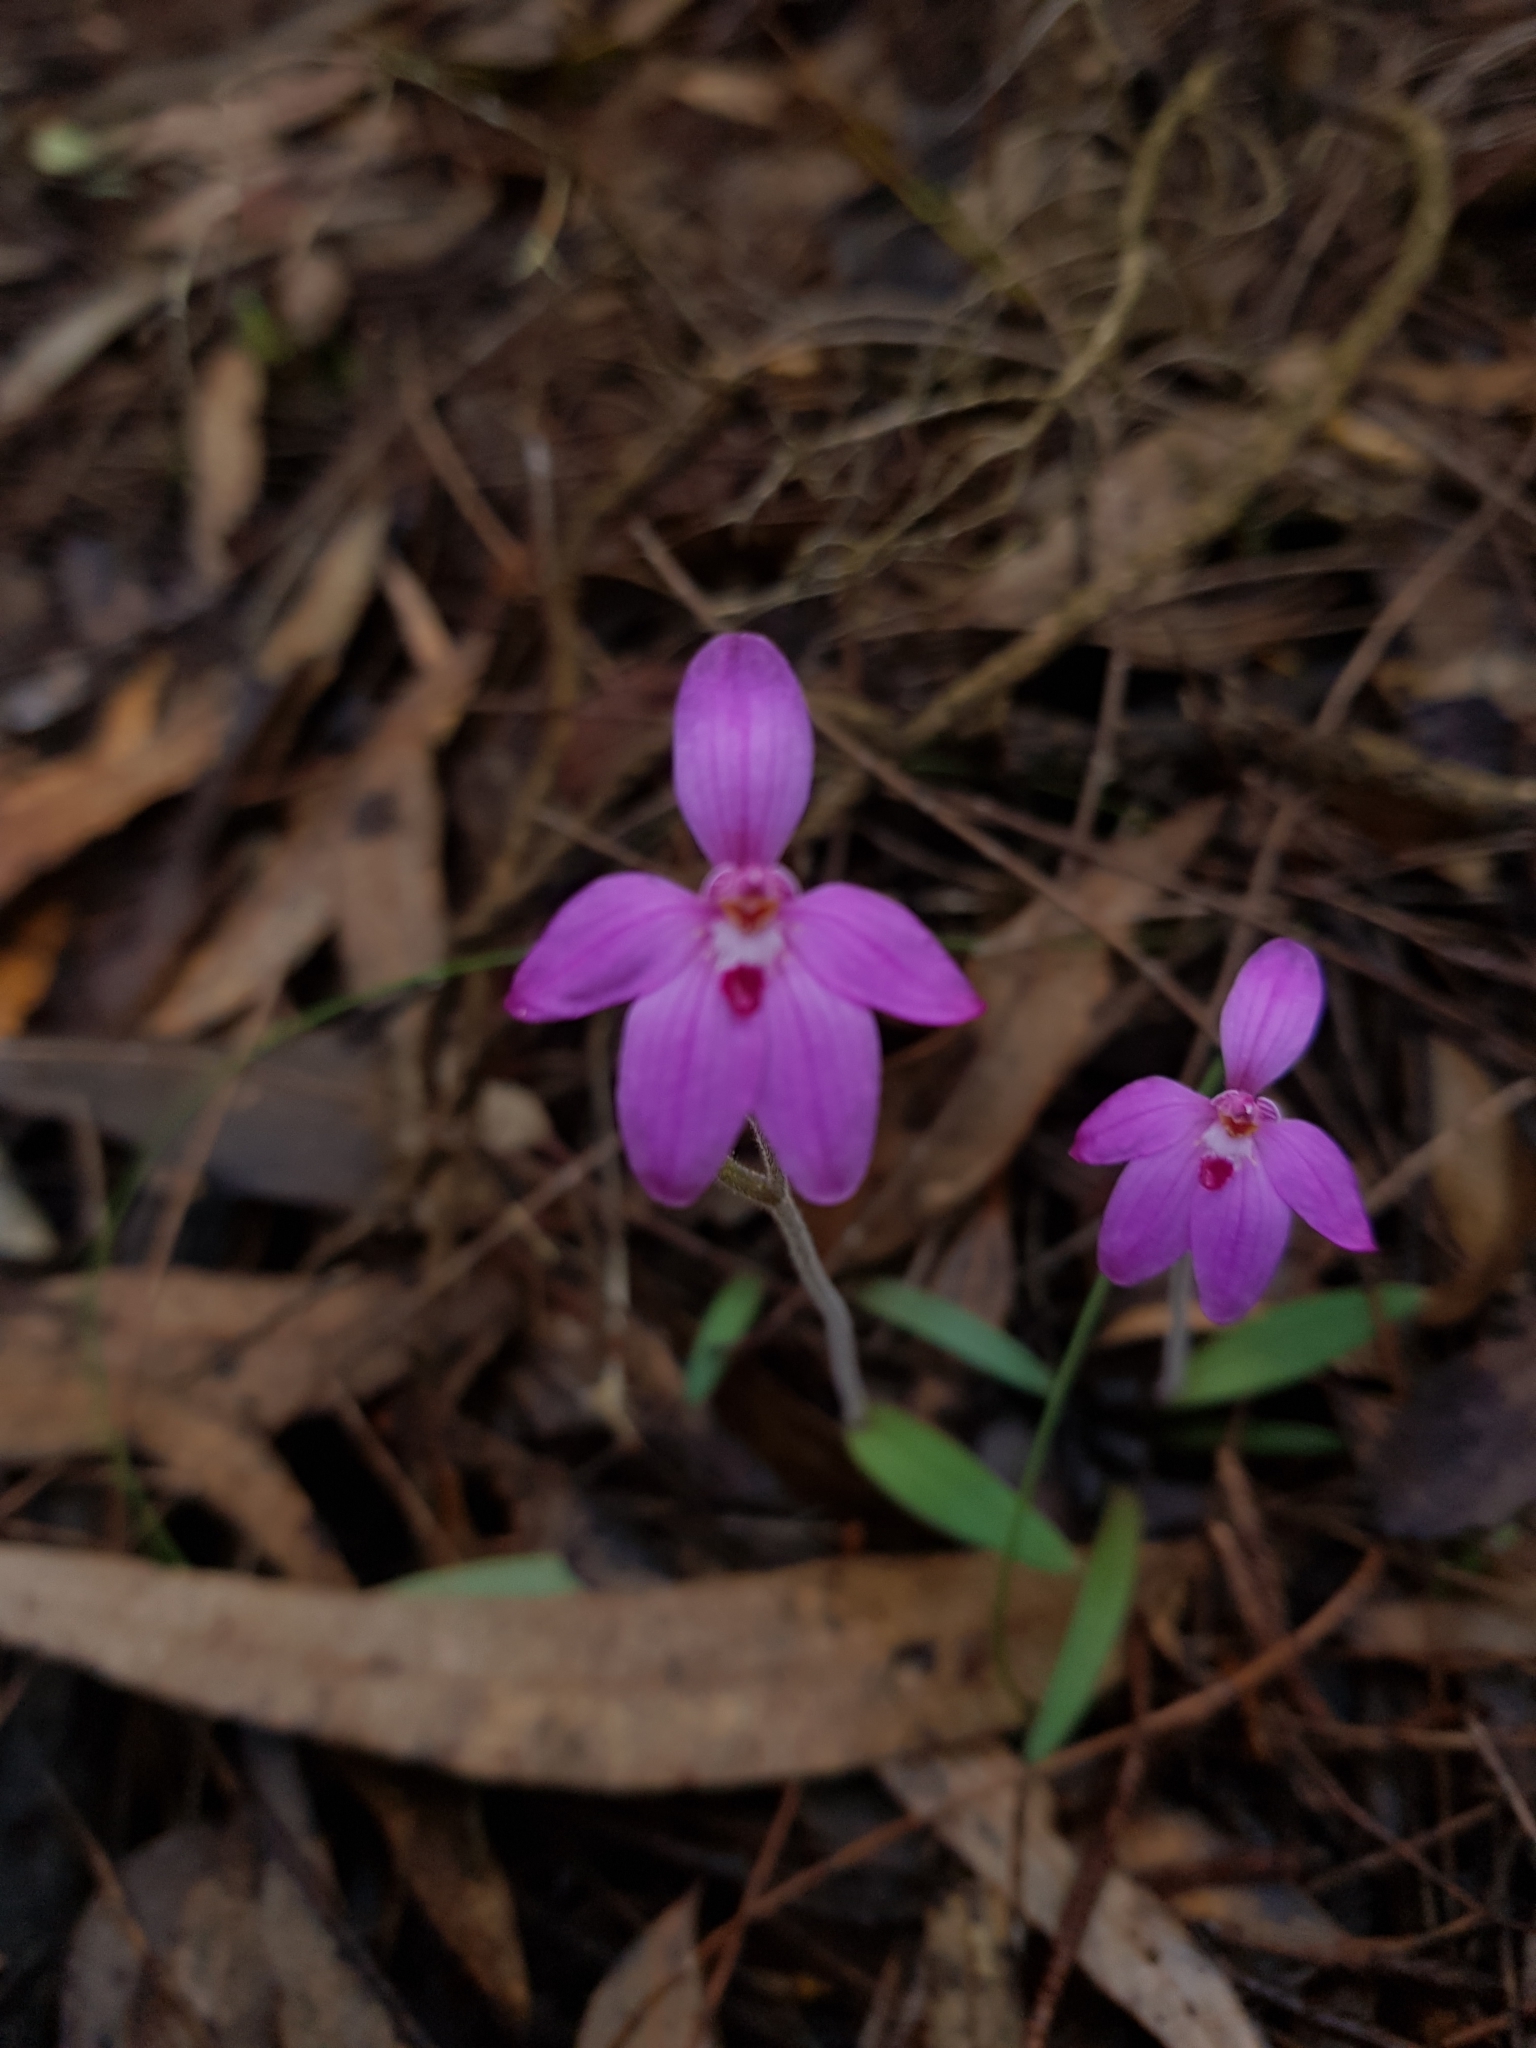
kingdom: Plantae
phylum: Tracheophyta
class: Liliopsida
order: Asparagales
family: Orchidaceae
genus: Caladenia
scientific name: Caladenia reptans
